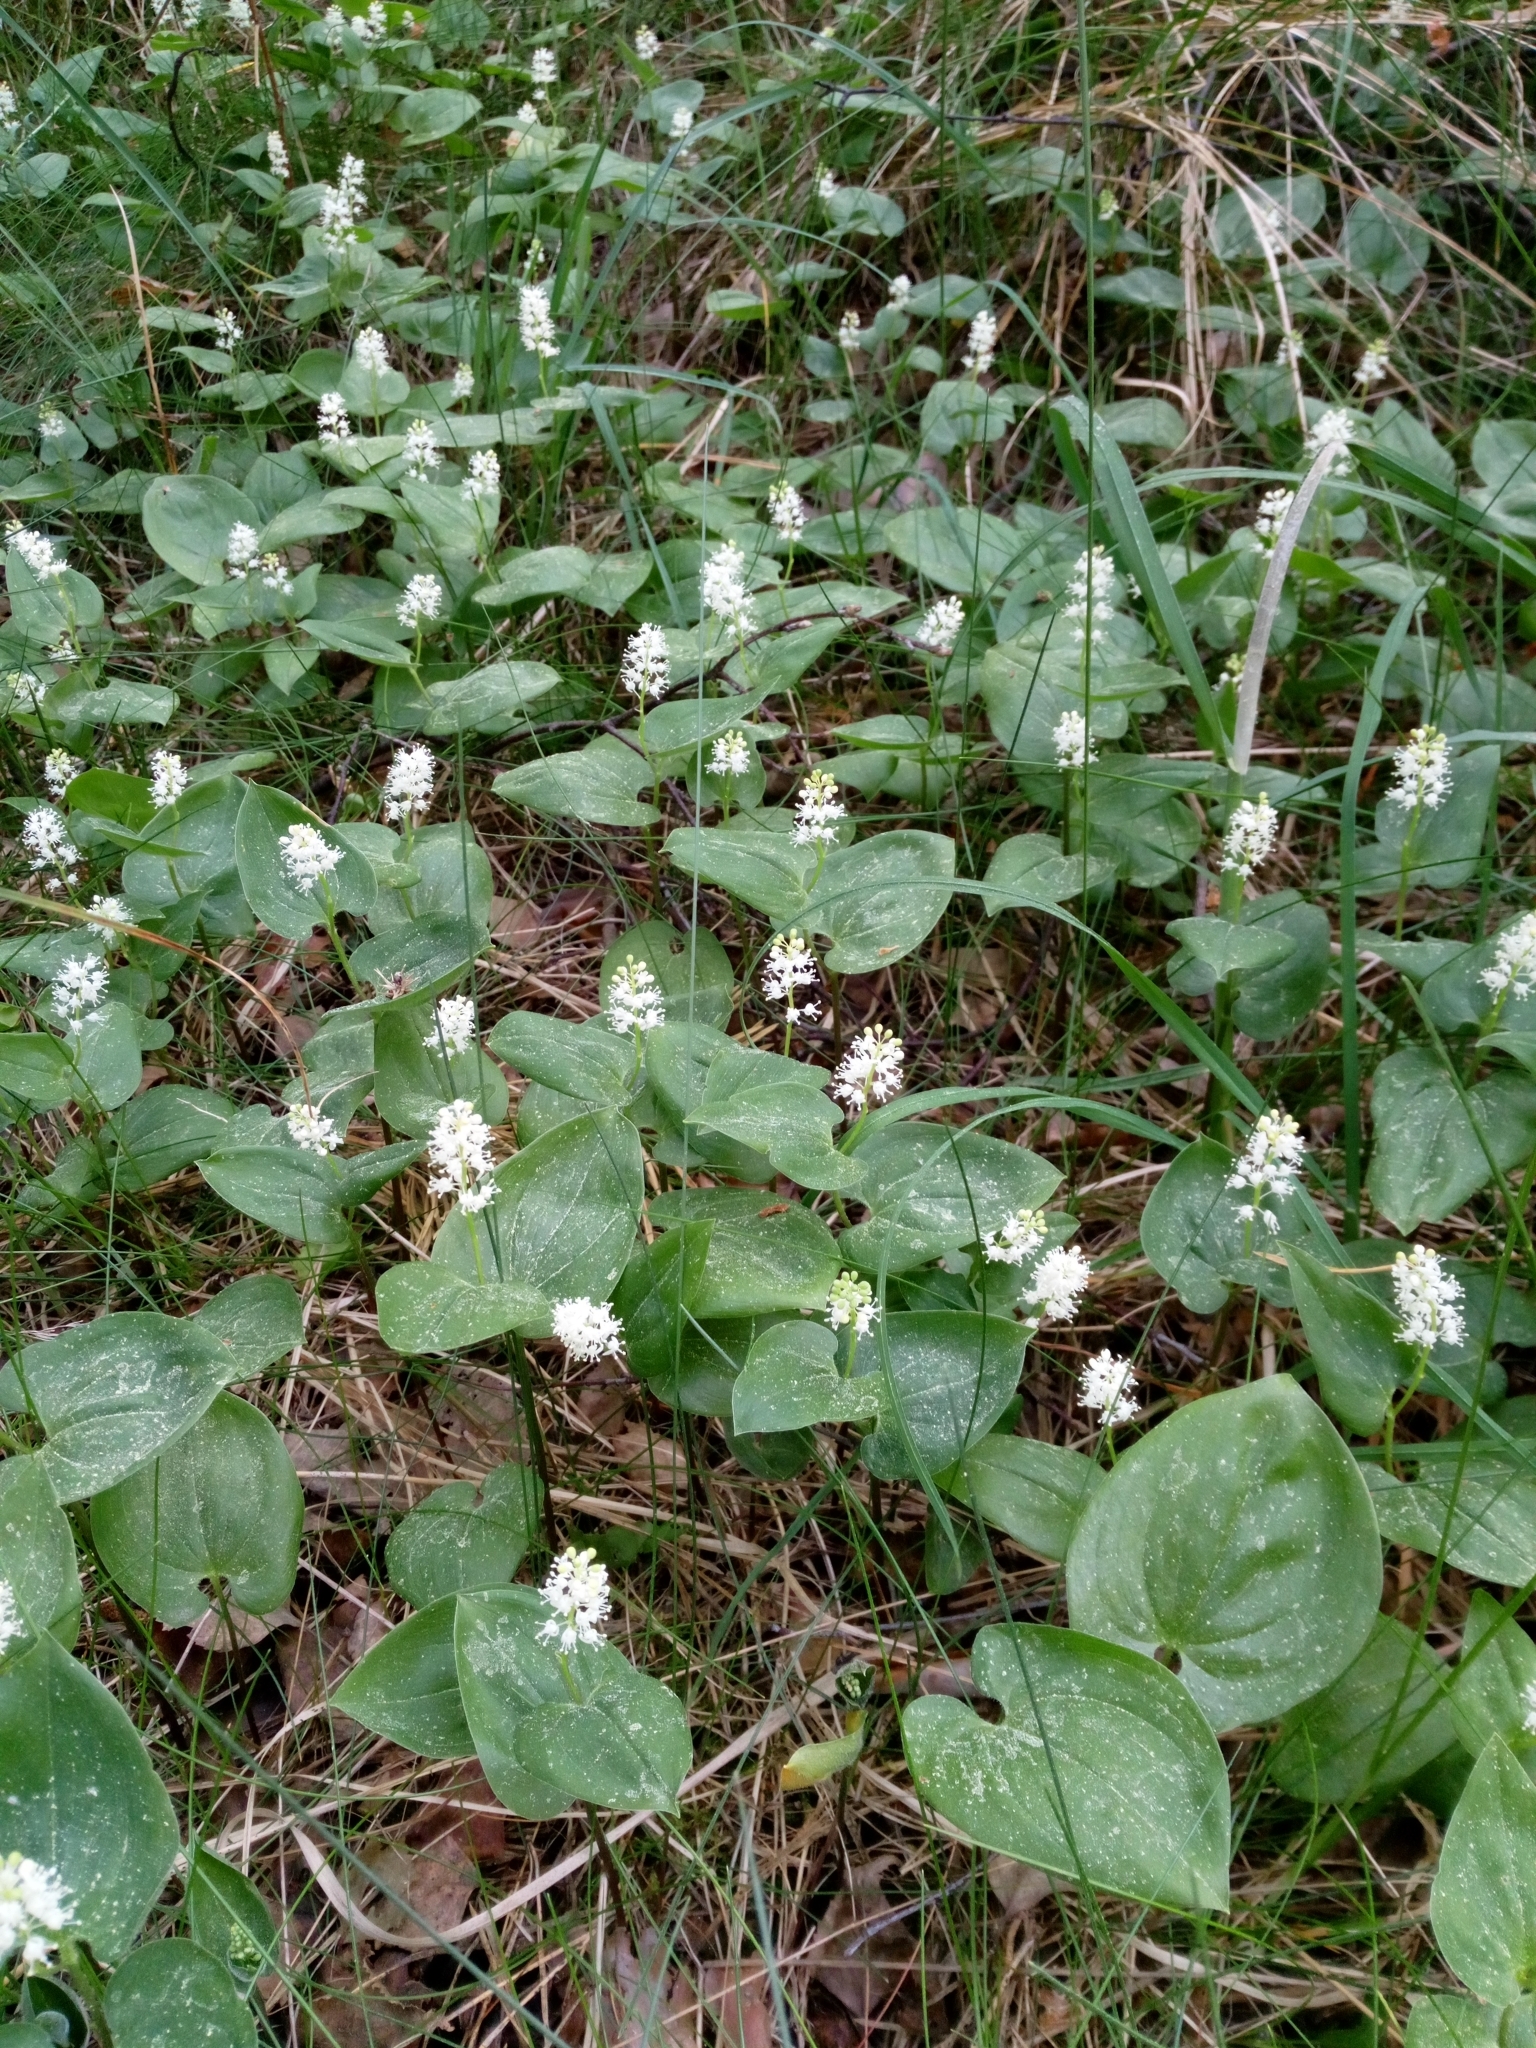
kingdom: Plantae
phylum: Tracheophyta
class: Liliopsida
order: Asparagales
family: Asparagaceae
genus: Maianthemum
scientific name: Maianthemum bifolium
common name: May lily
